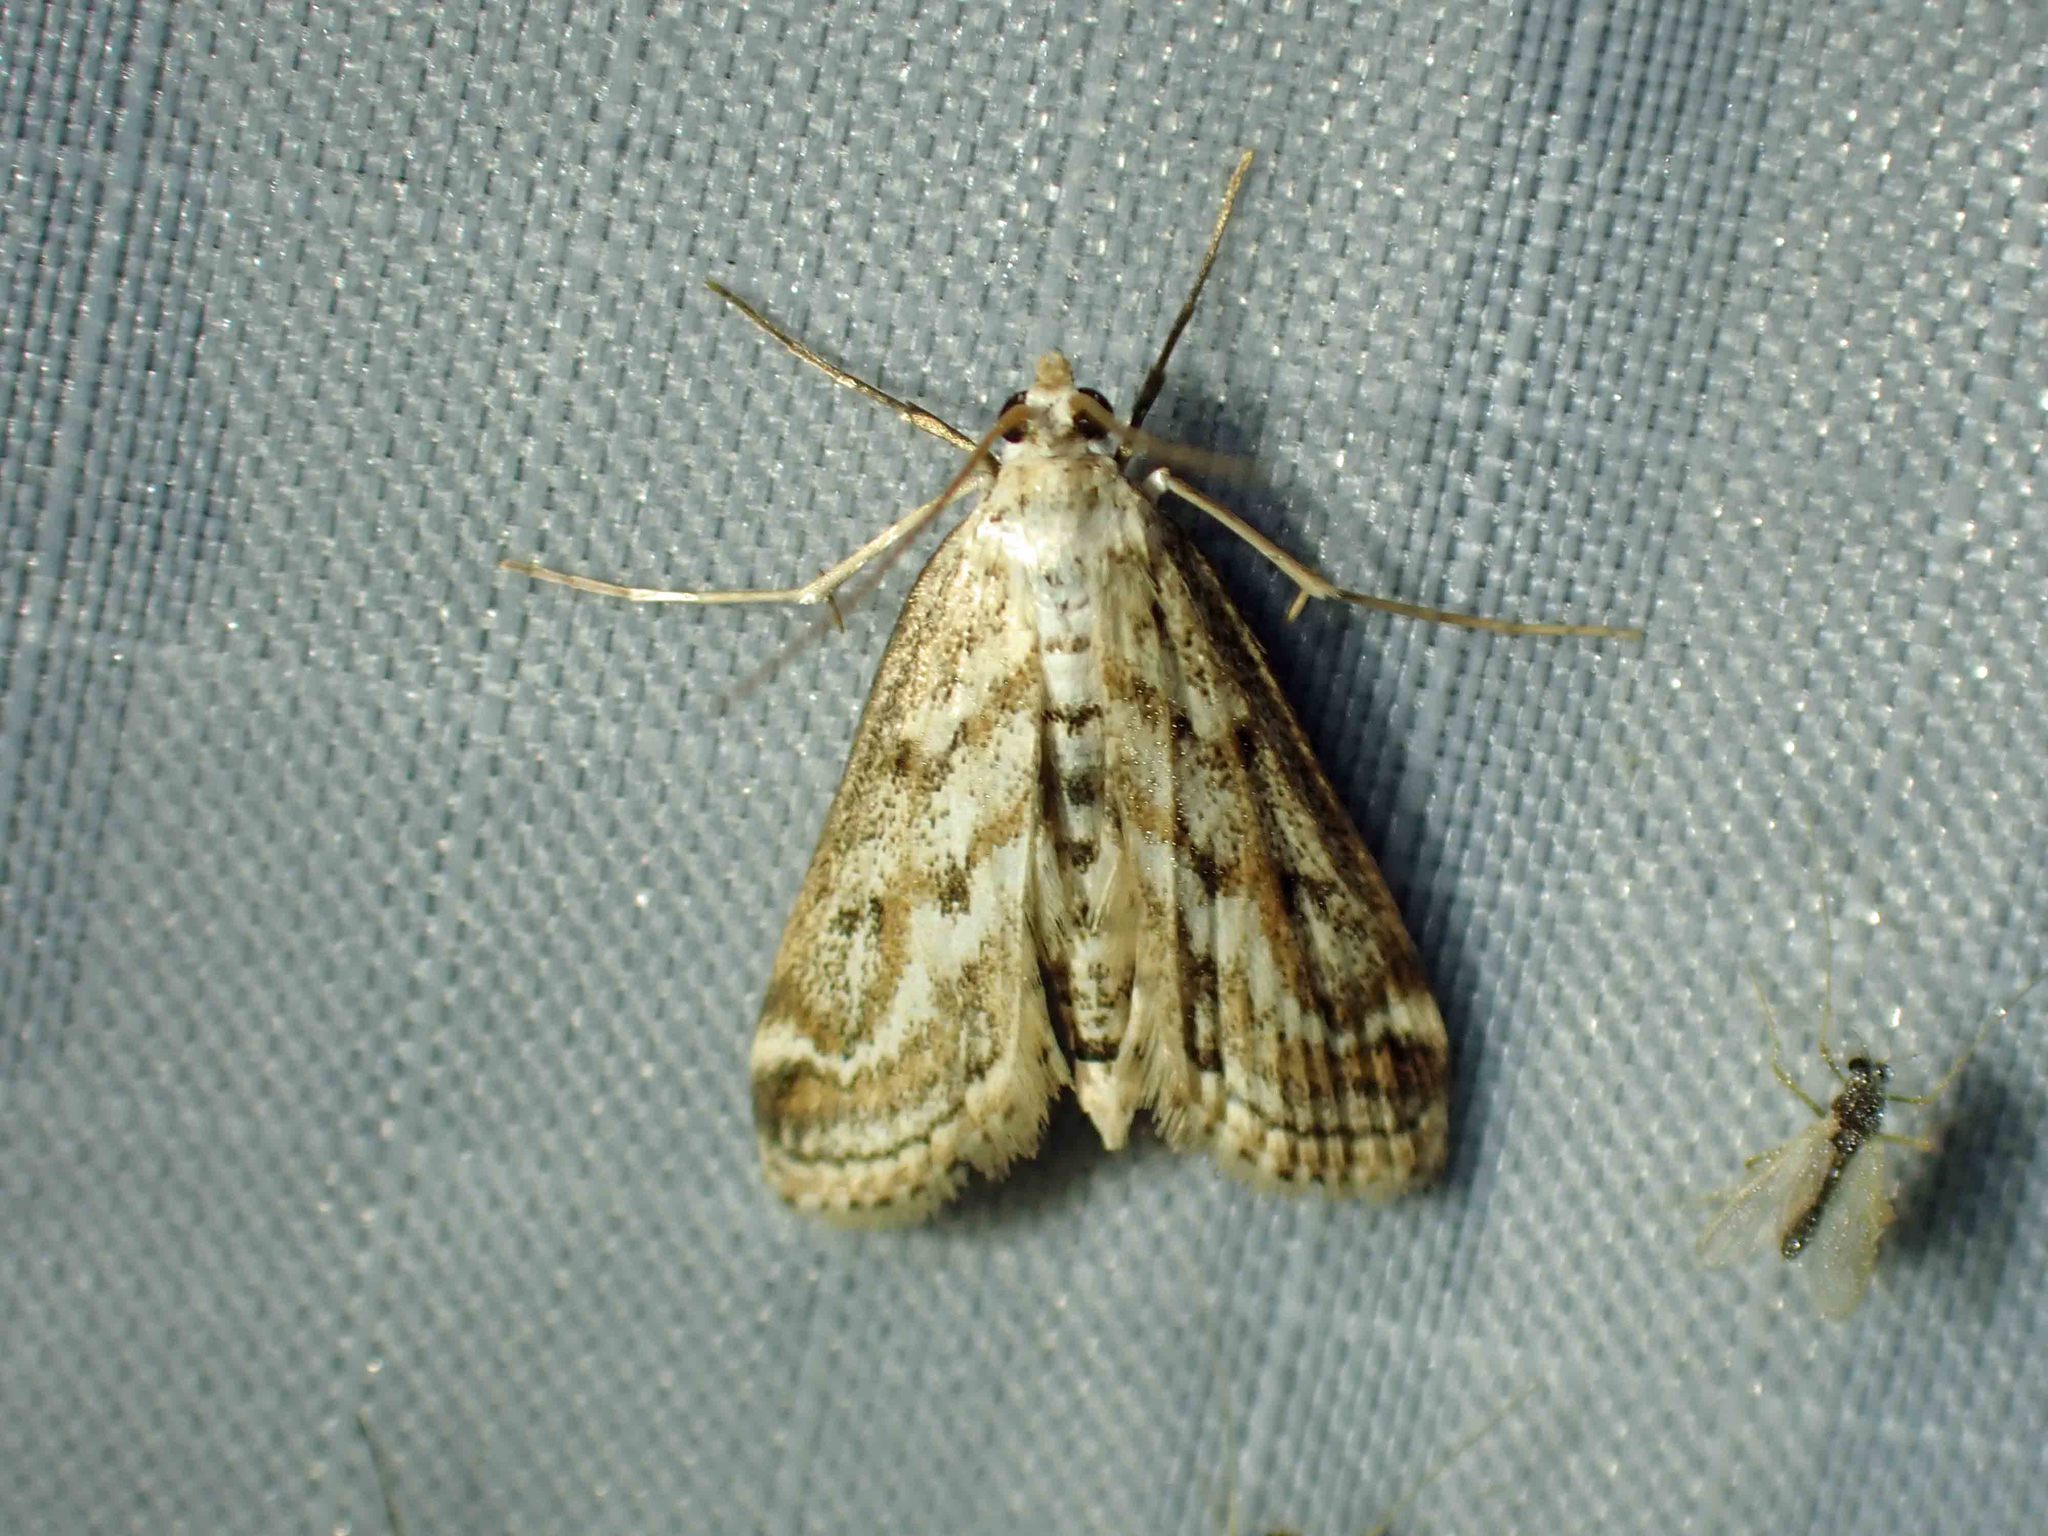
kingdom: Animalia
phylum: Arthropoda
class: Insecta
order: Lepidoptera
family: Crambidae
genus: Parapoynx
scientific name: Parapoynx allionealis
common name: Bladderwort casemaker
